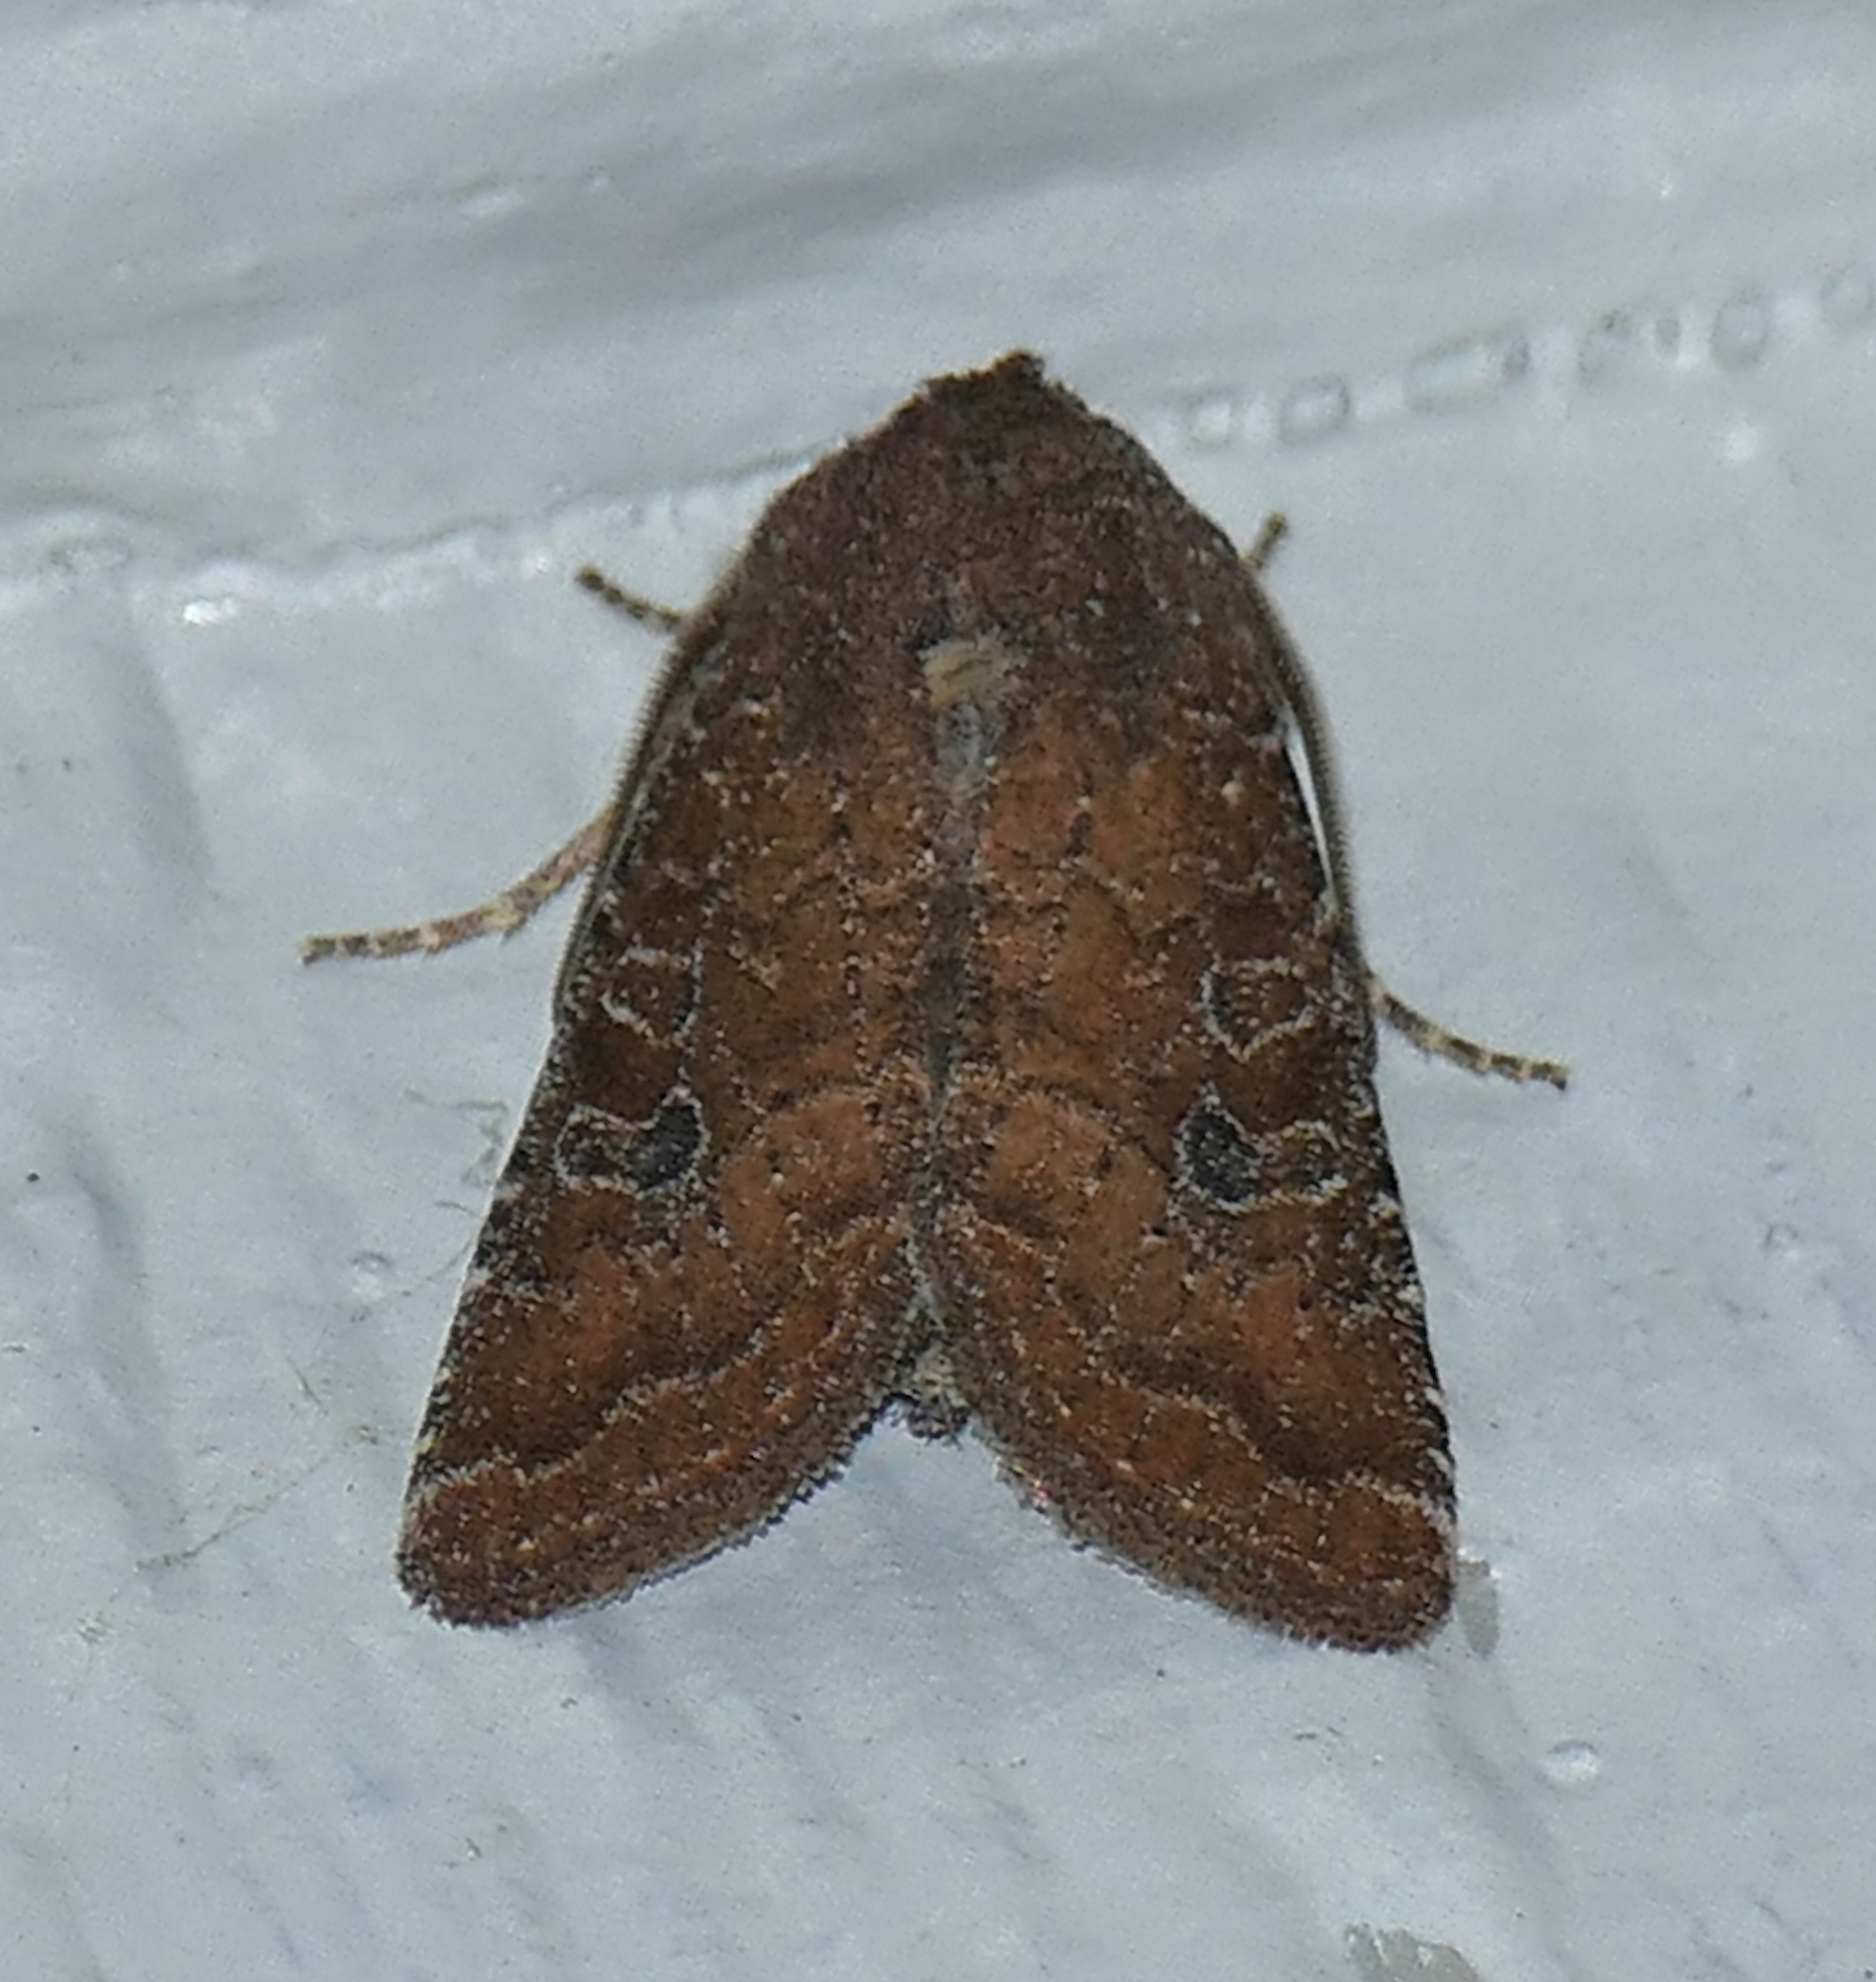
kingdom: Animalia
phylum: Arthropoda
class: Insecta
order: Lepidoptera
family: Noctuidae
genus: Trichopolia
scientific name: Trichopolia
